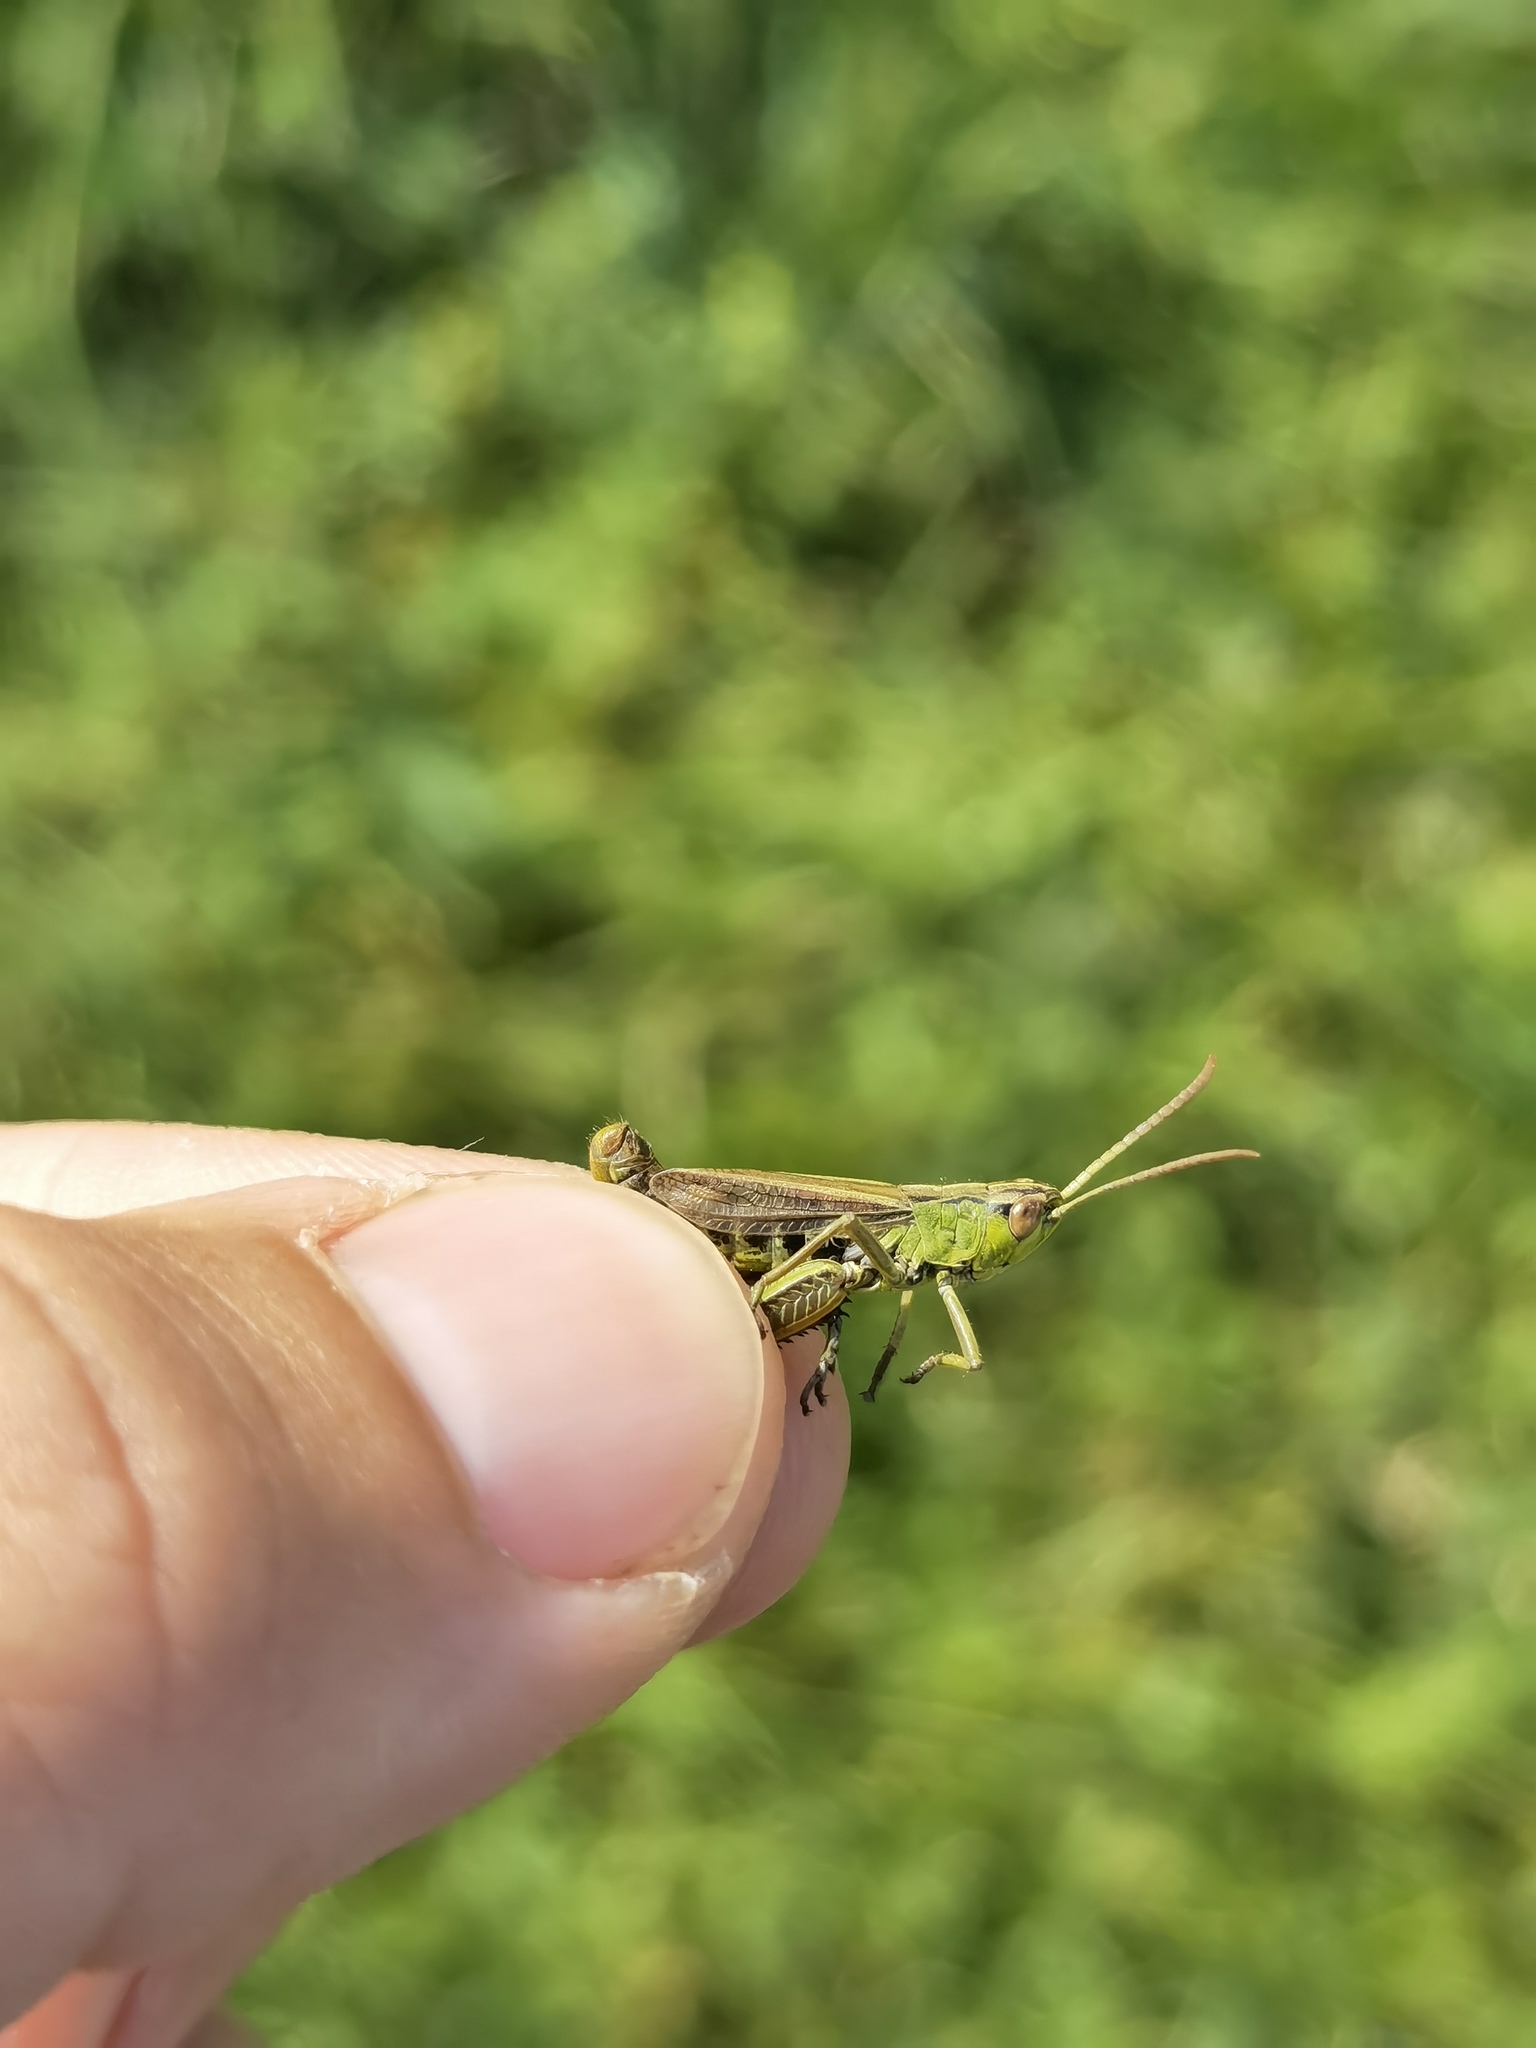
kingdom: Animalia
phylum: Arthropoda
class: Insecta
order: Orthoptera
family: Acrididae
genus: Pseudochorthippus
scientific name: Pseudochorthippus parallelus
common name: Meadow grasshopper
